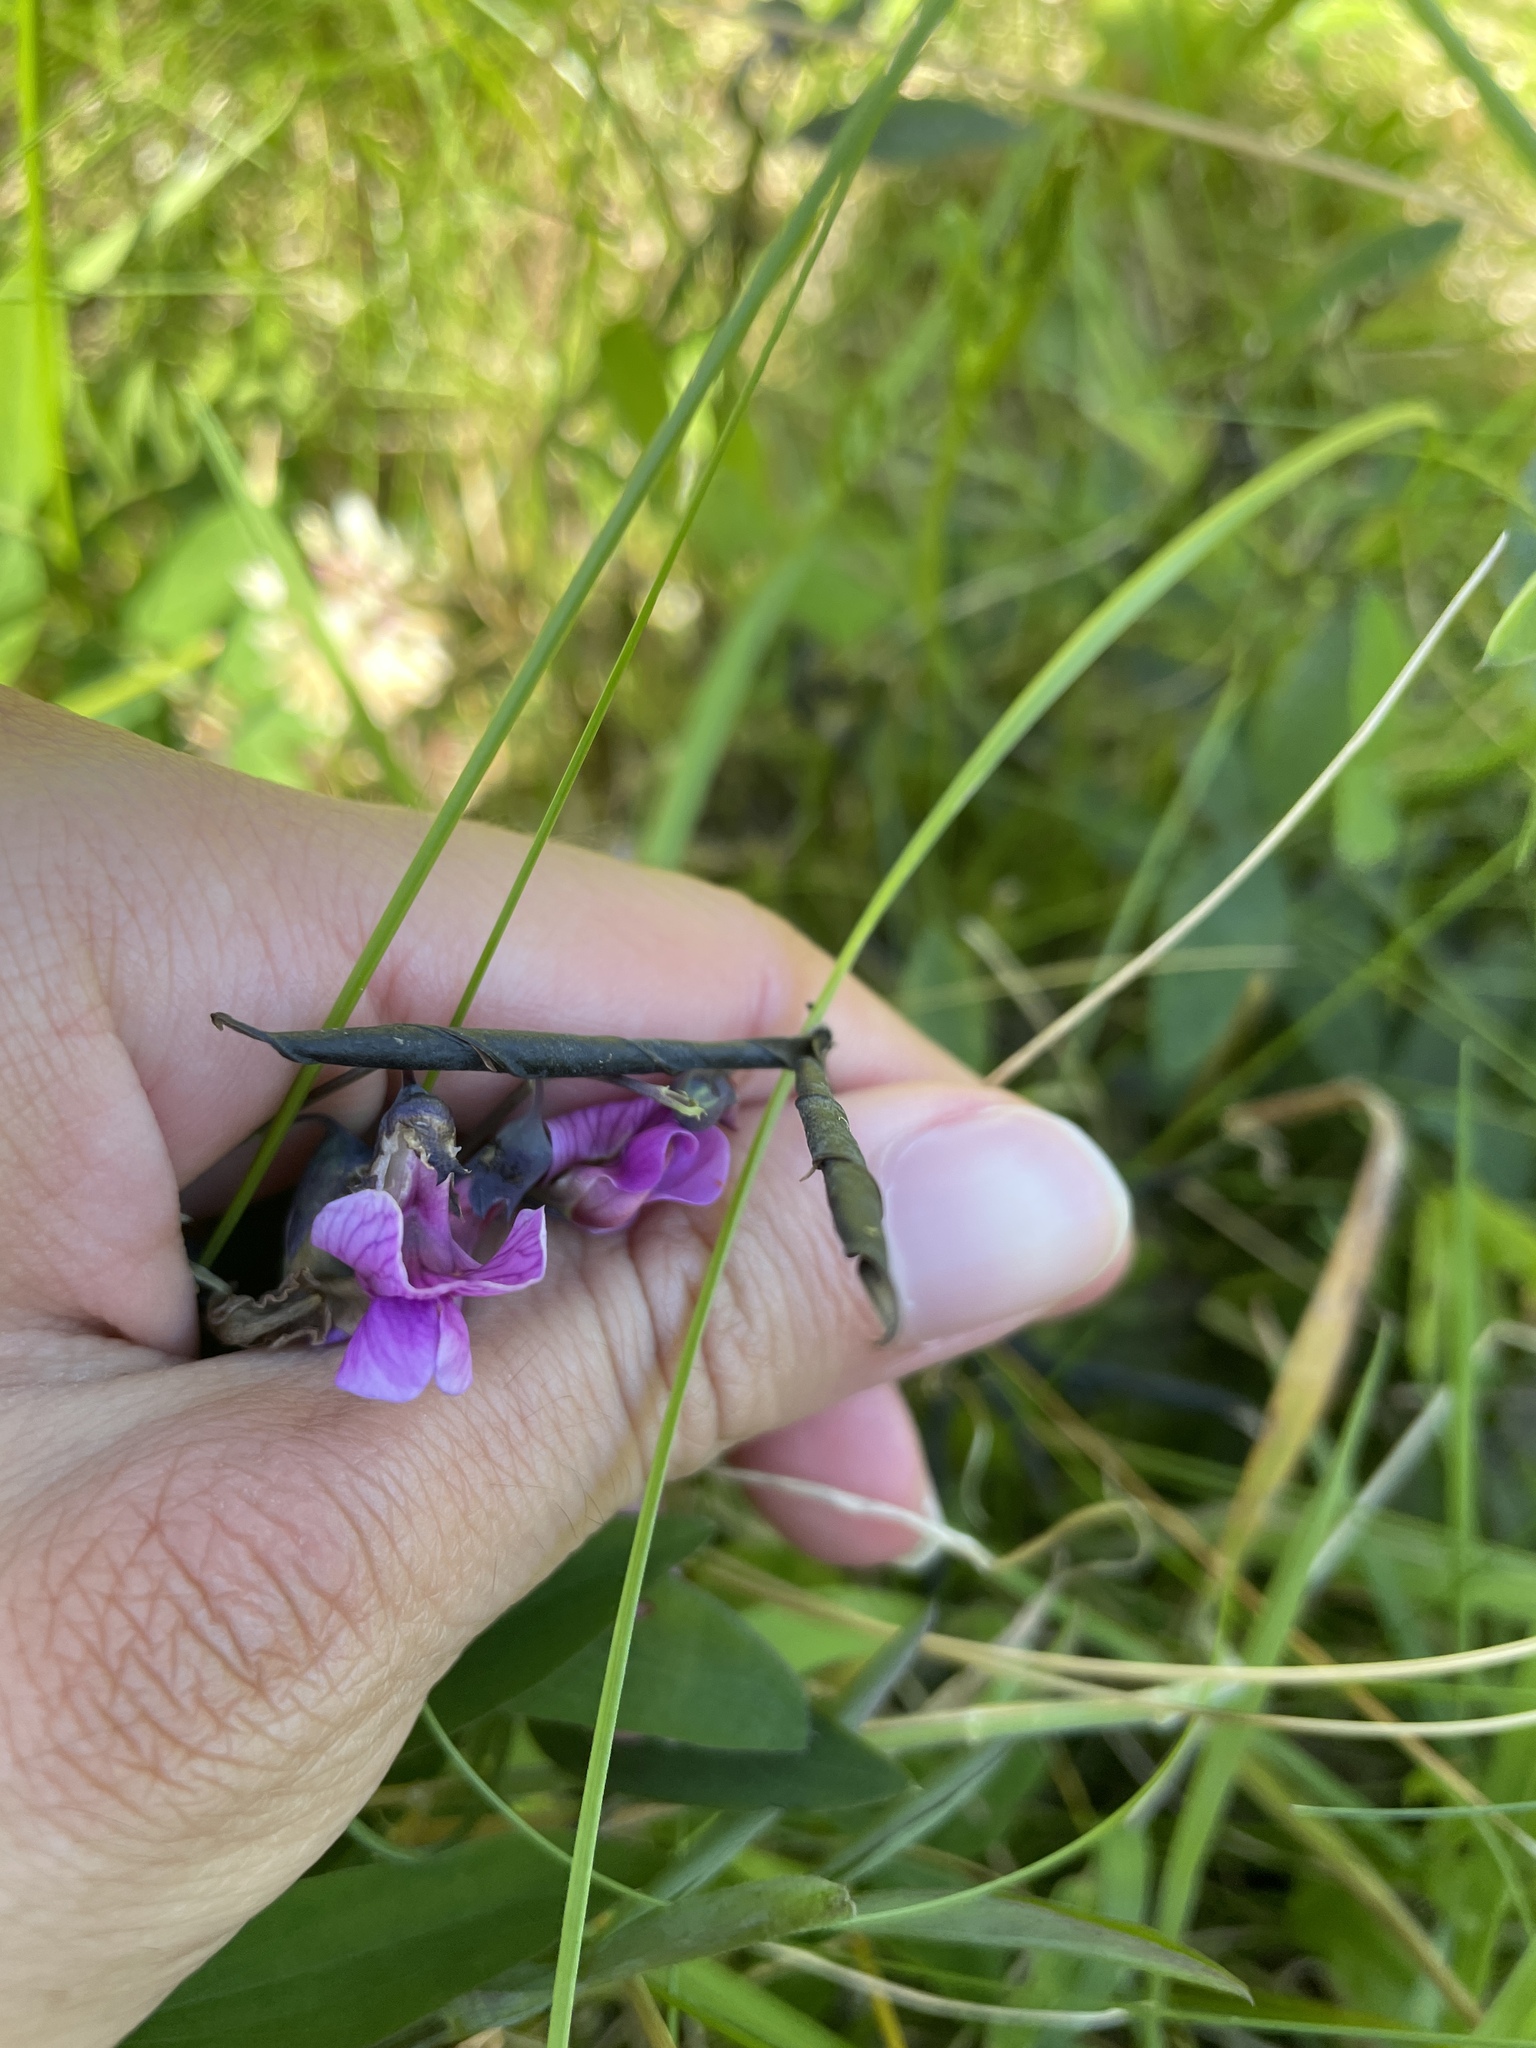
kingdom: Plantae
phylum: Tracheophyta
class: Magnoliopsida
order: Fabales
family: Fabaceae
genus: Lathyrus
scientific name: Lathyrus linifolius
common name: Bitter-vetch
